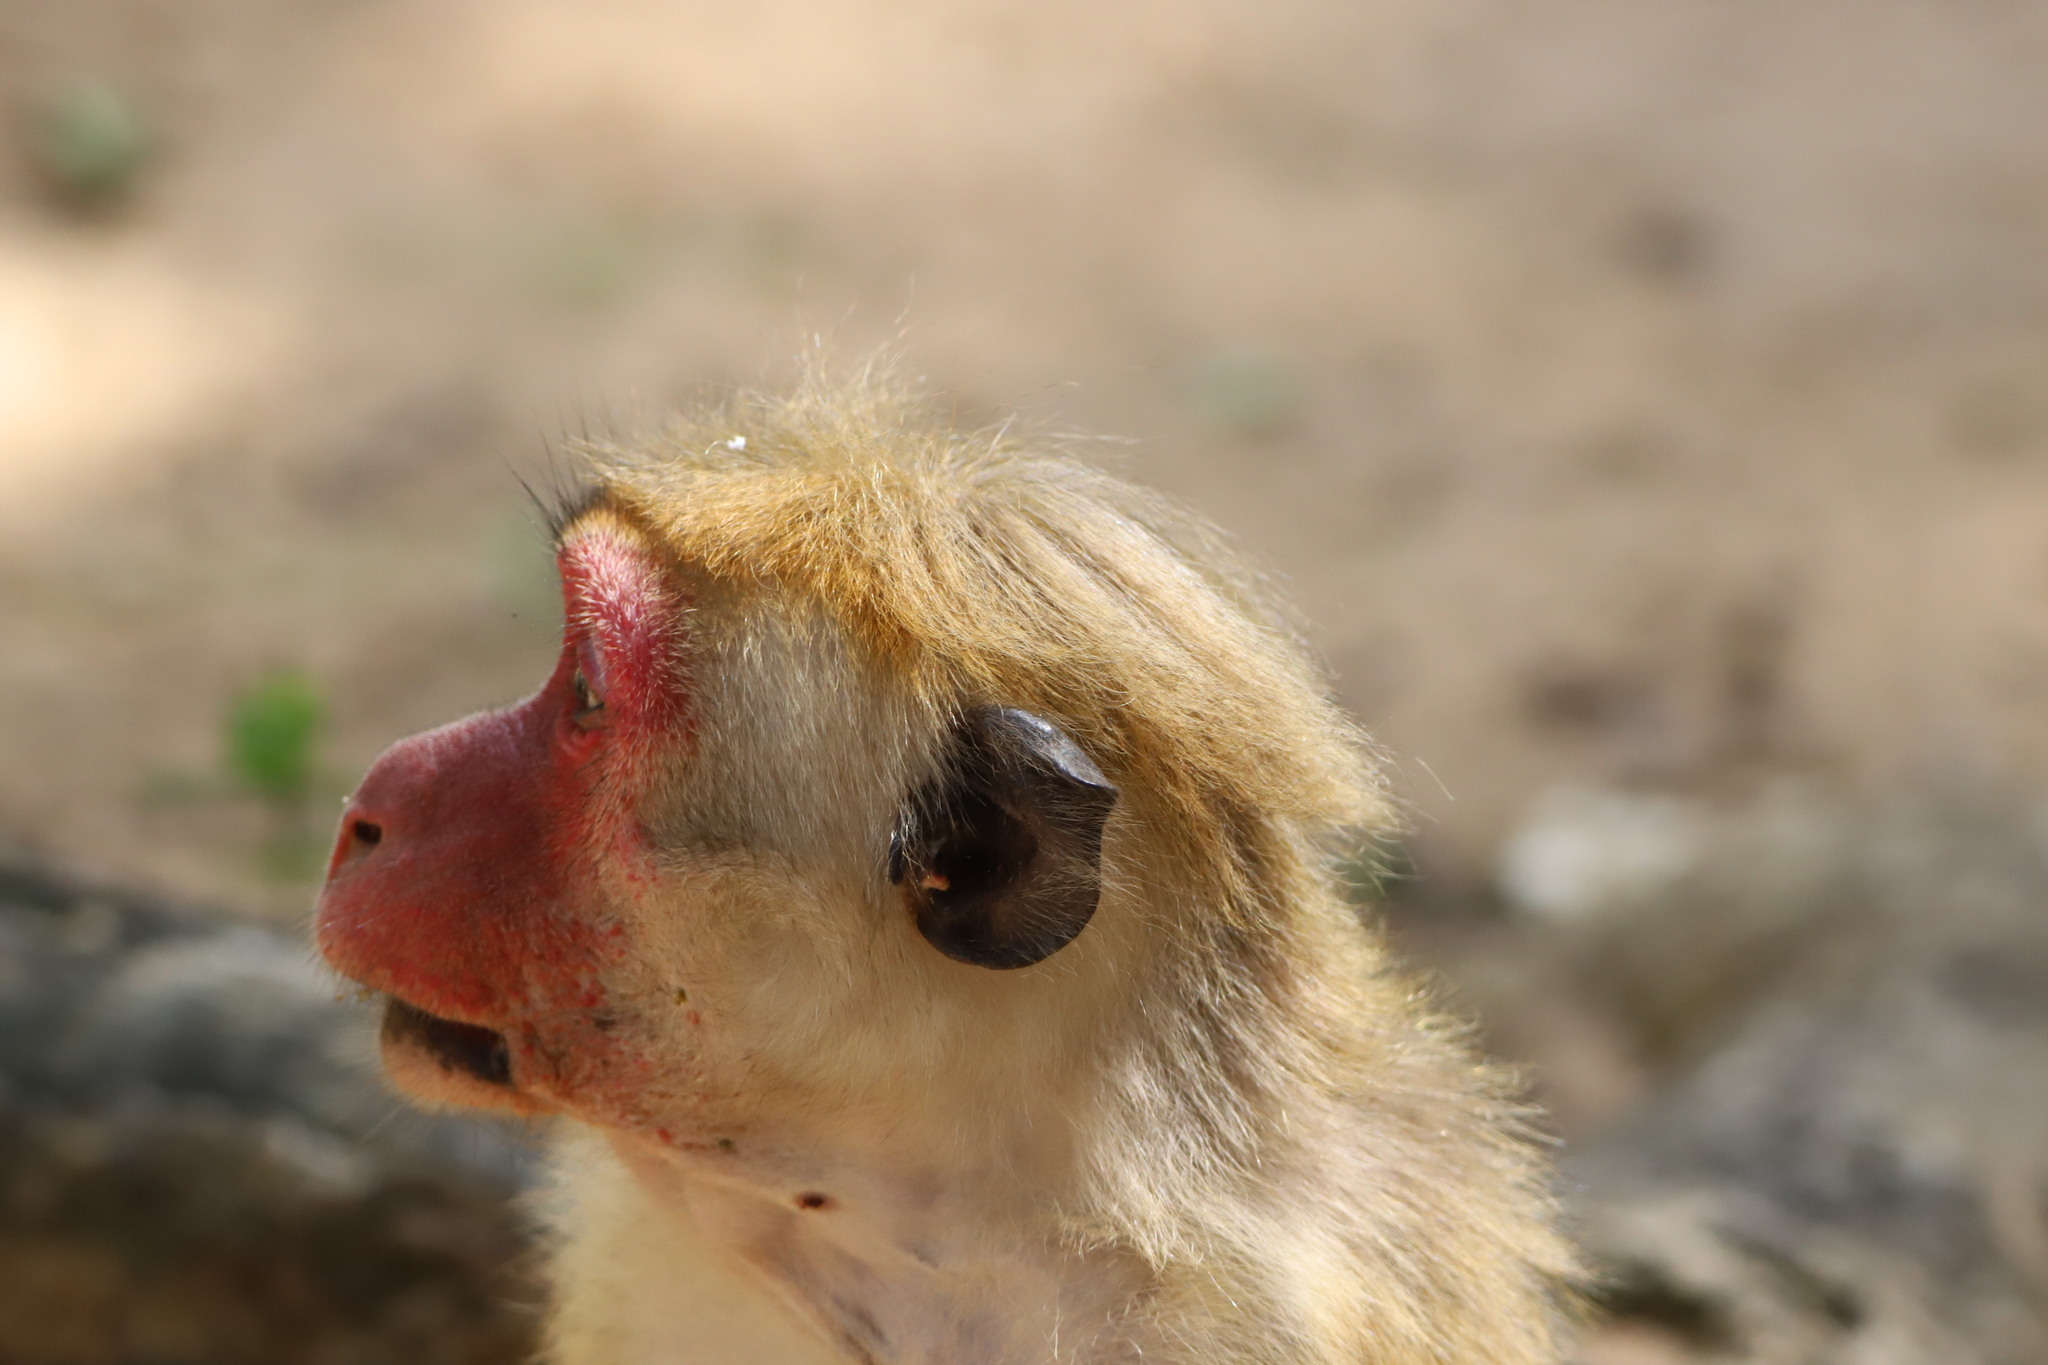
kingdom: Animalia
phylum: Chordata
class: Mammalia
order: Primates
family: Cercopithecidae
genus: Macaca
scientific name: Macaca sinica
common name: Toque macaque
